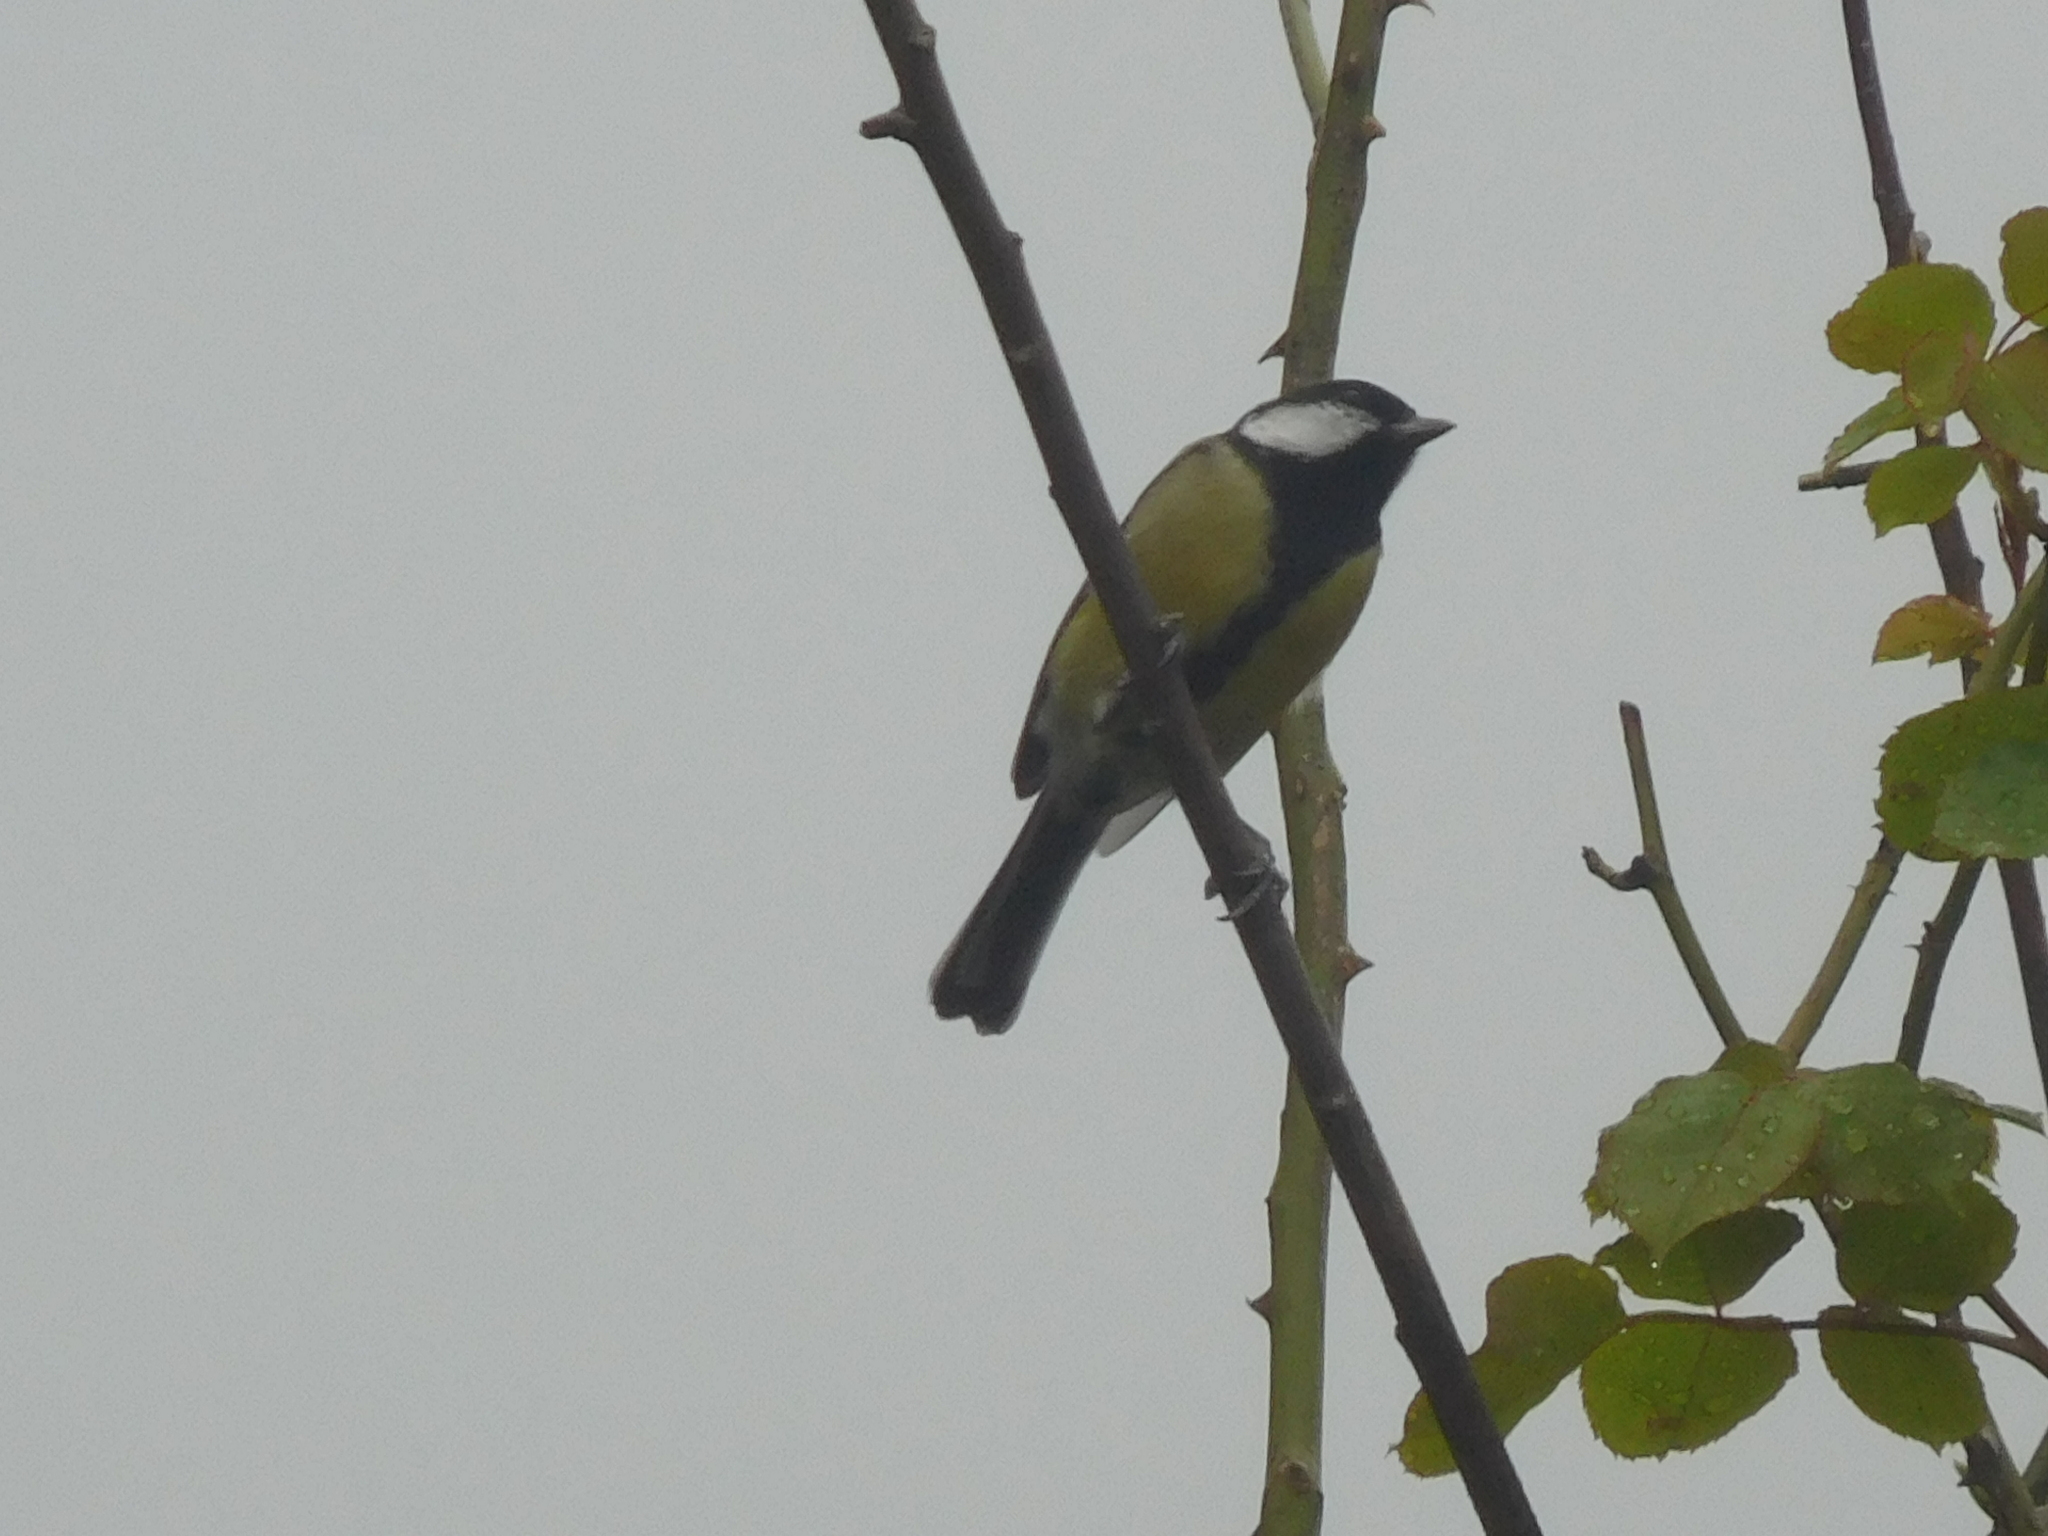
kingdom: Animalia
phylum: Chordata
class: Aves
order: Passeriformes
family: Paridae
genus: Parus
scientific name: Parus major
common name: Great tit
